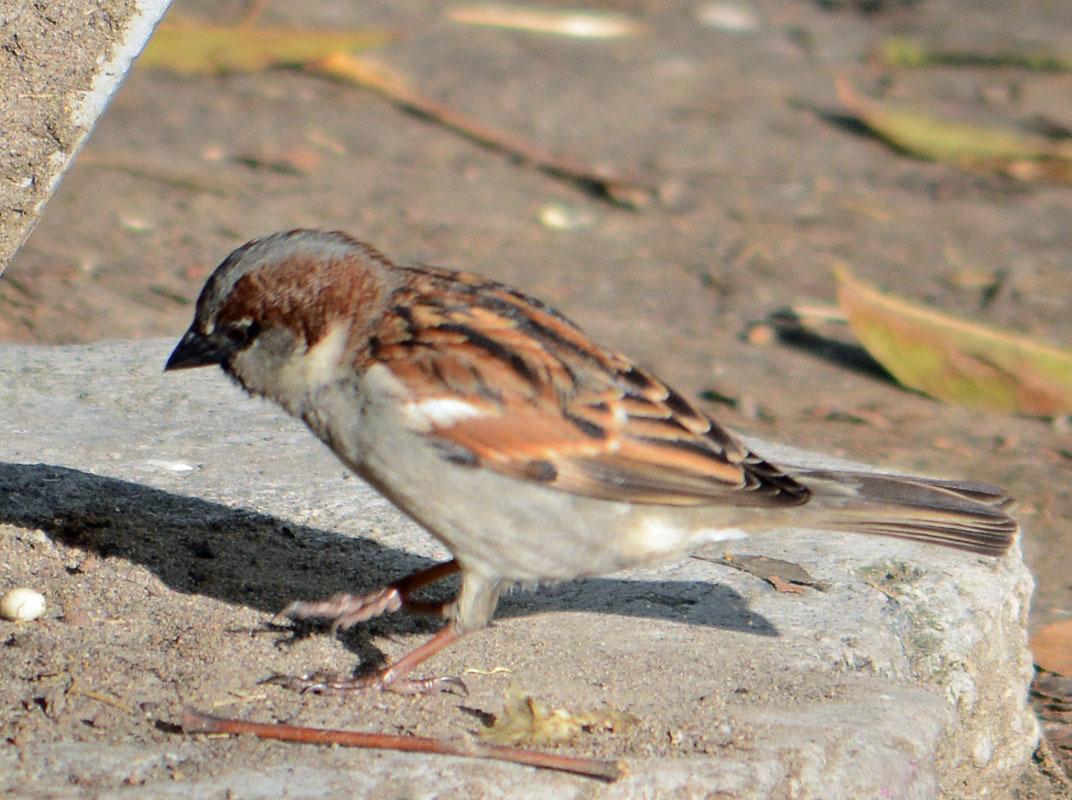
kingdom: Animalia
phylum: Chordata
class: Aves
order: Passeriformes
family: Passeridae
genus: Passer
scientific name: Passer domesticus
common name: House sparrow
